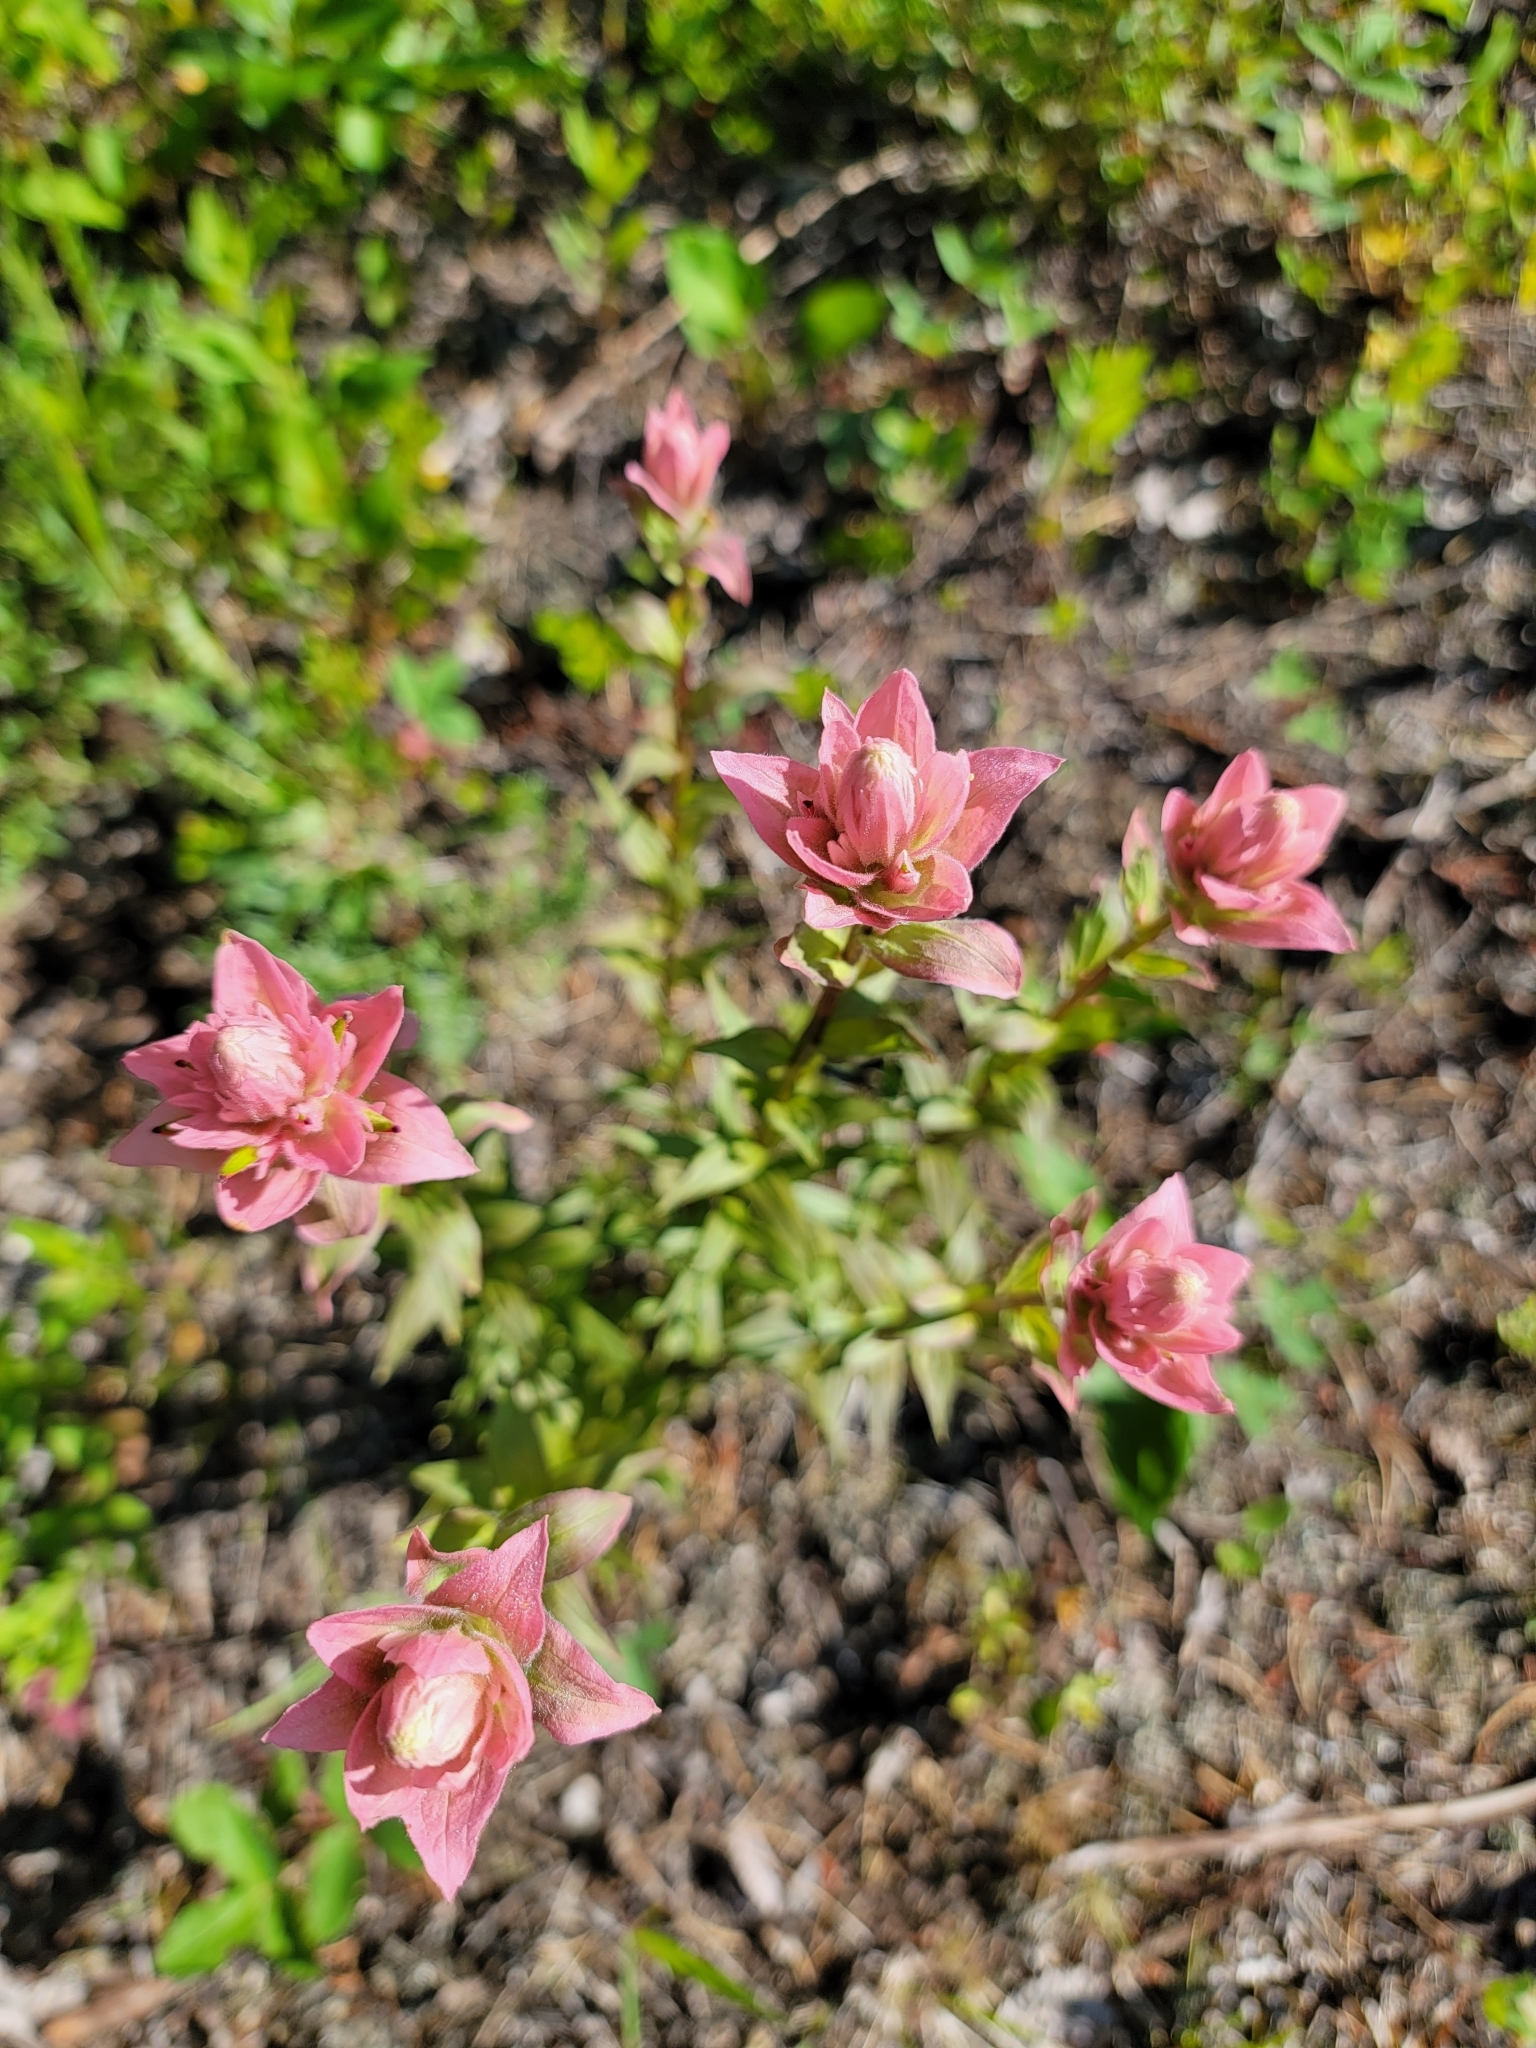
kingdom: Plantae
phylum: Tracheophyta
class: Magnoliopsida
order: Lamiales
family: Orobanchaceae
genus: Castilleja
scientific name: Castilleja miniata
